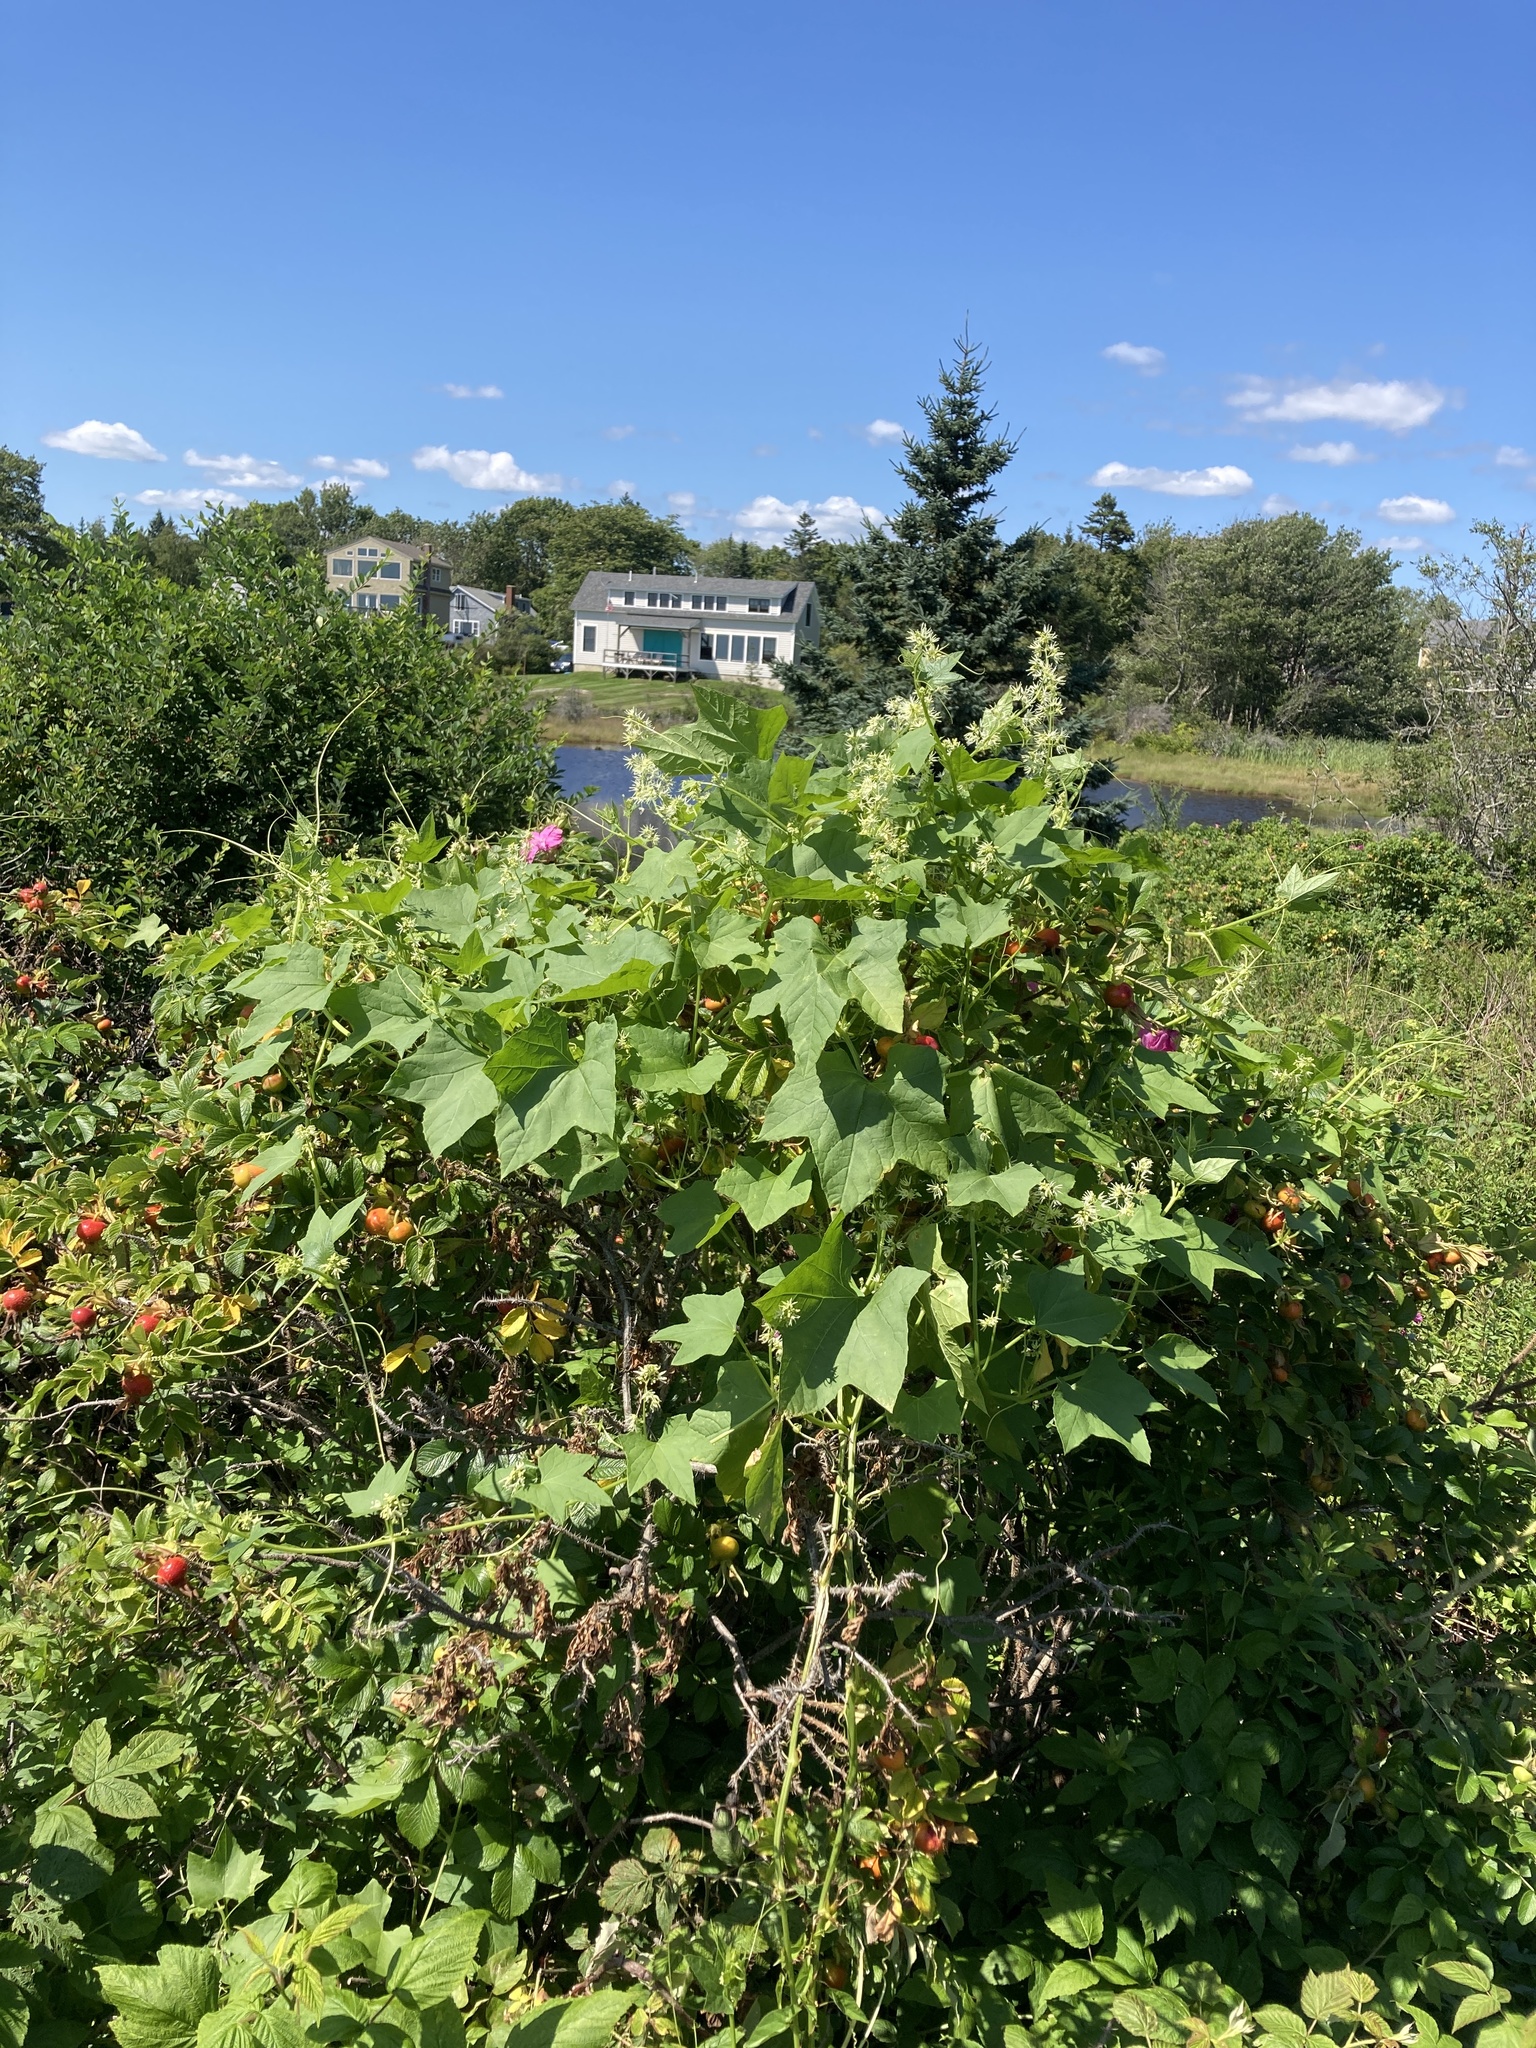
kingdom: Plantae
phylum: Tracheophyta
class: Magnoliopsida
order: Cucurbitales
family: Cucurbitaceae
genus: Echinocystis
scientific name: Echinocystis lobata
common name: Wild cucumber
